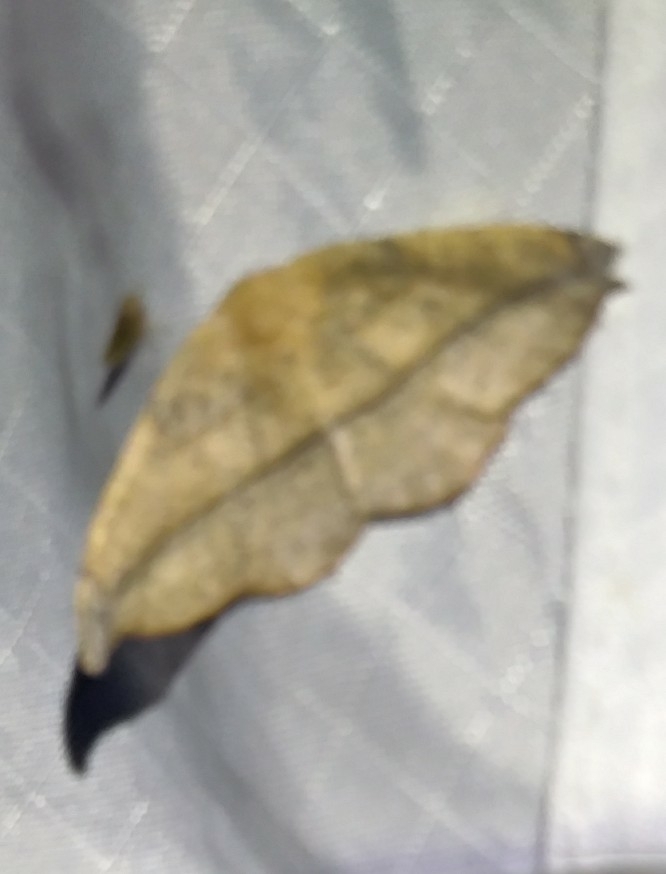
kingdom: Animalia
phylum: Arthropoda
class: Insecta
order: Lepidoptera
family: Geometridae
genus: Prochoerodes
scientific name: Prochoerodes lineola
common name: Large maple spanworm
